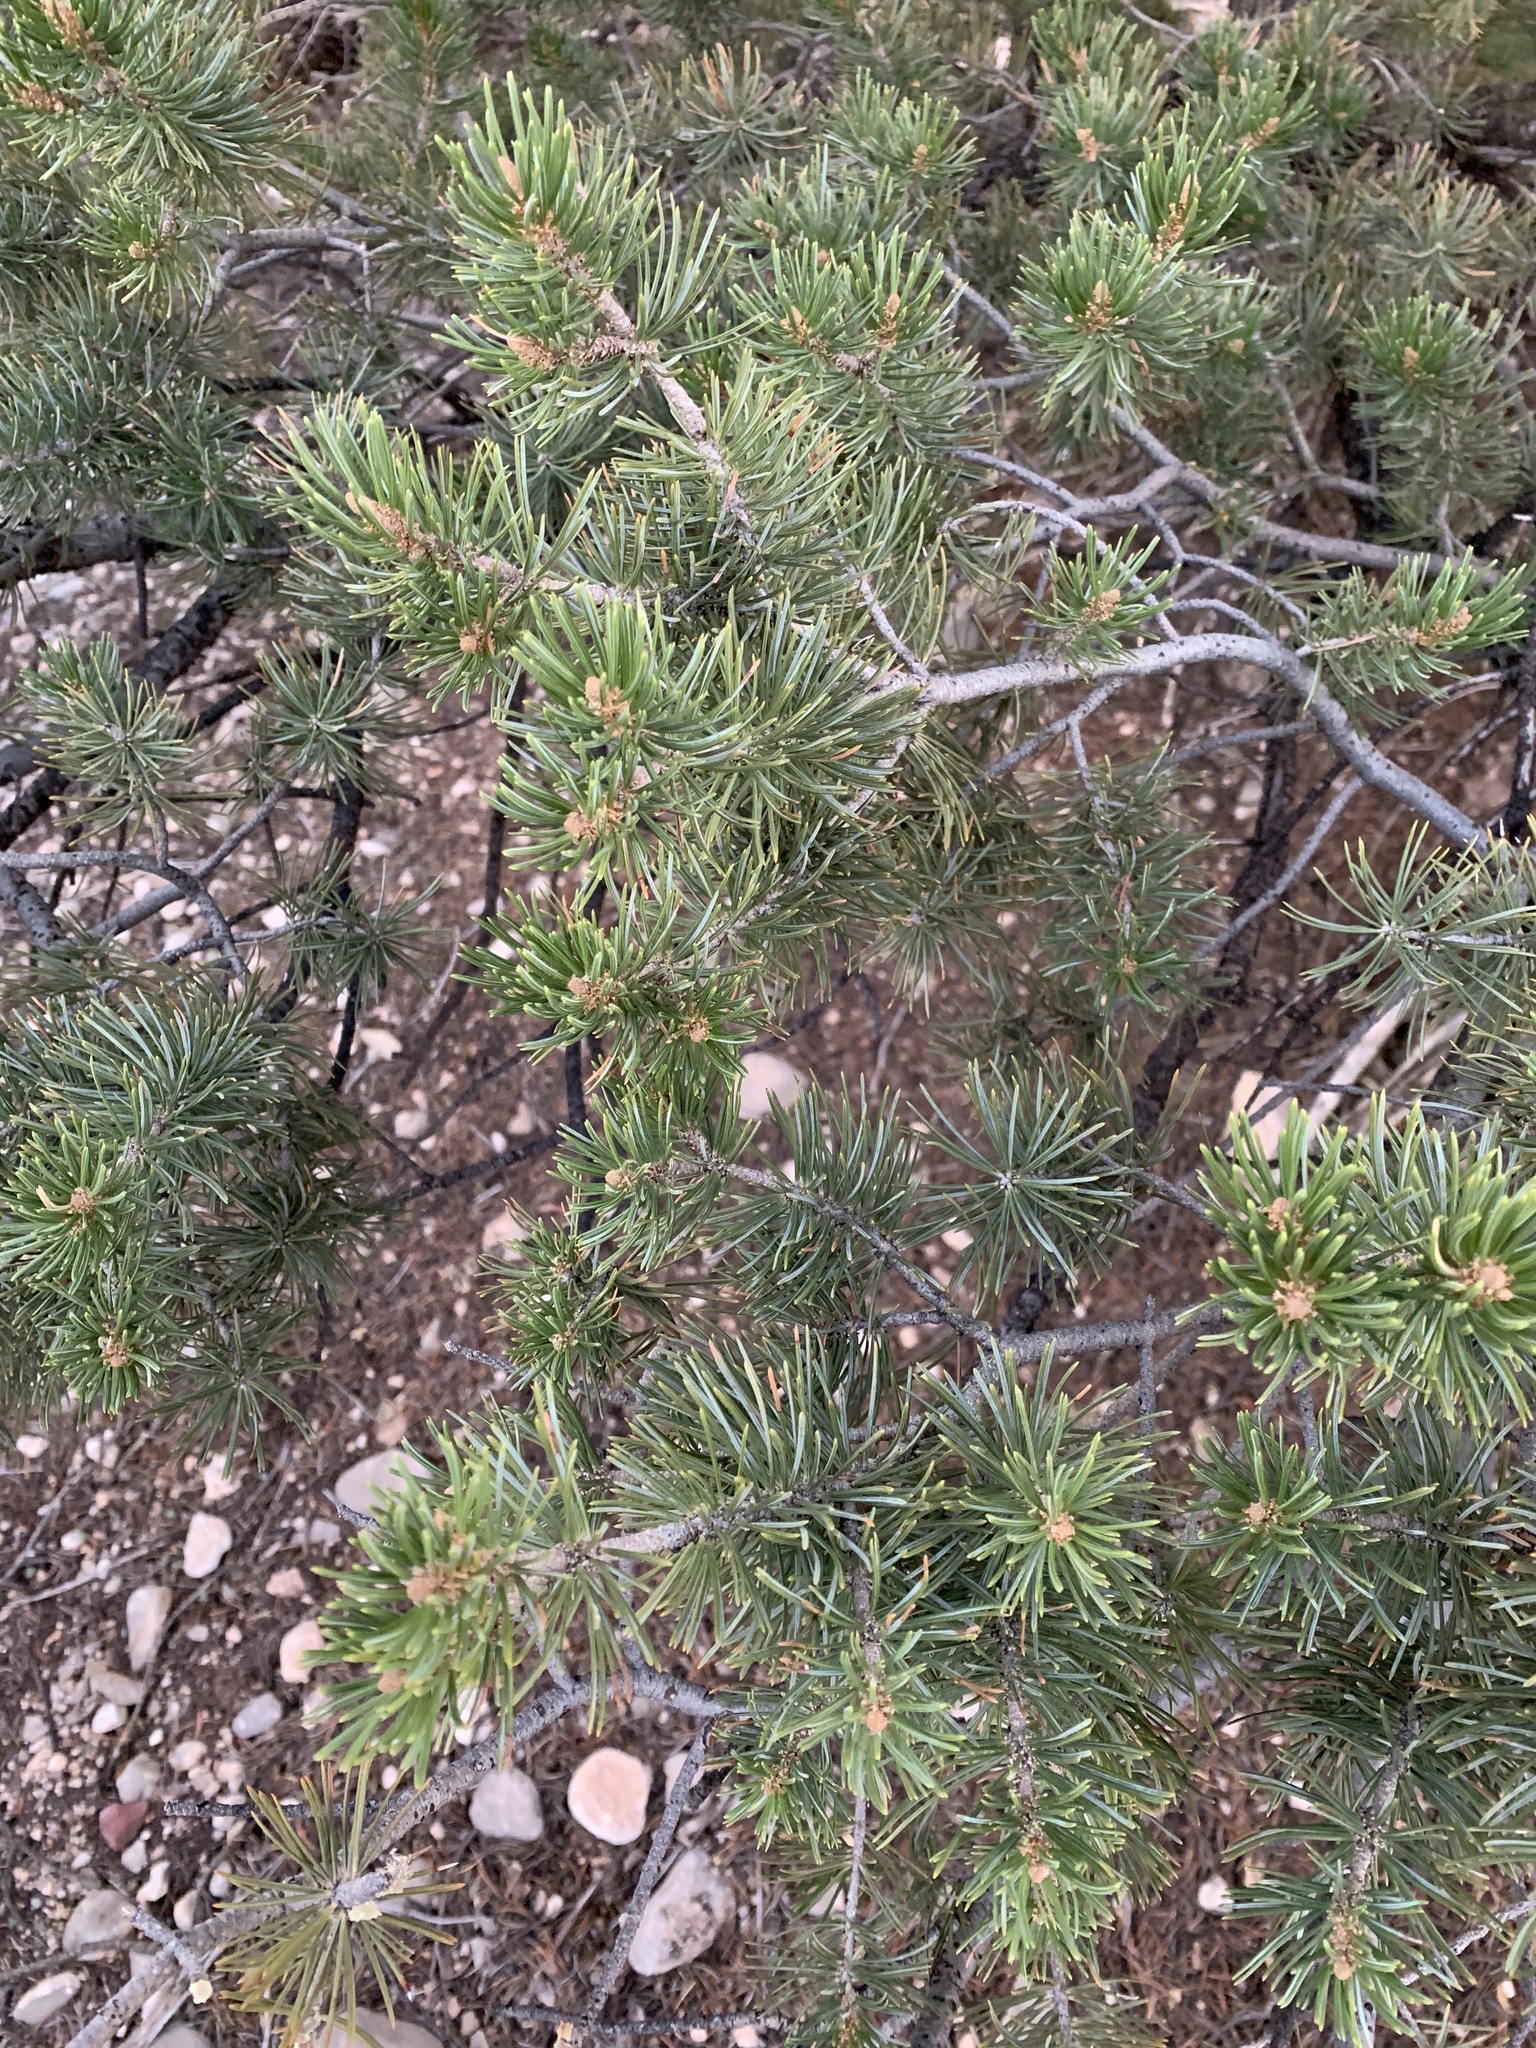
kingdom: Plantae
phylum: Tracheophyta
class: Pinopsida
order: Pinales
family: Pinaceae
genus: Pinus
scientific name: Pinus edulis
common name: Colorado pinyon
